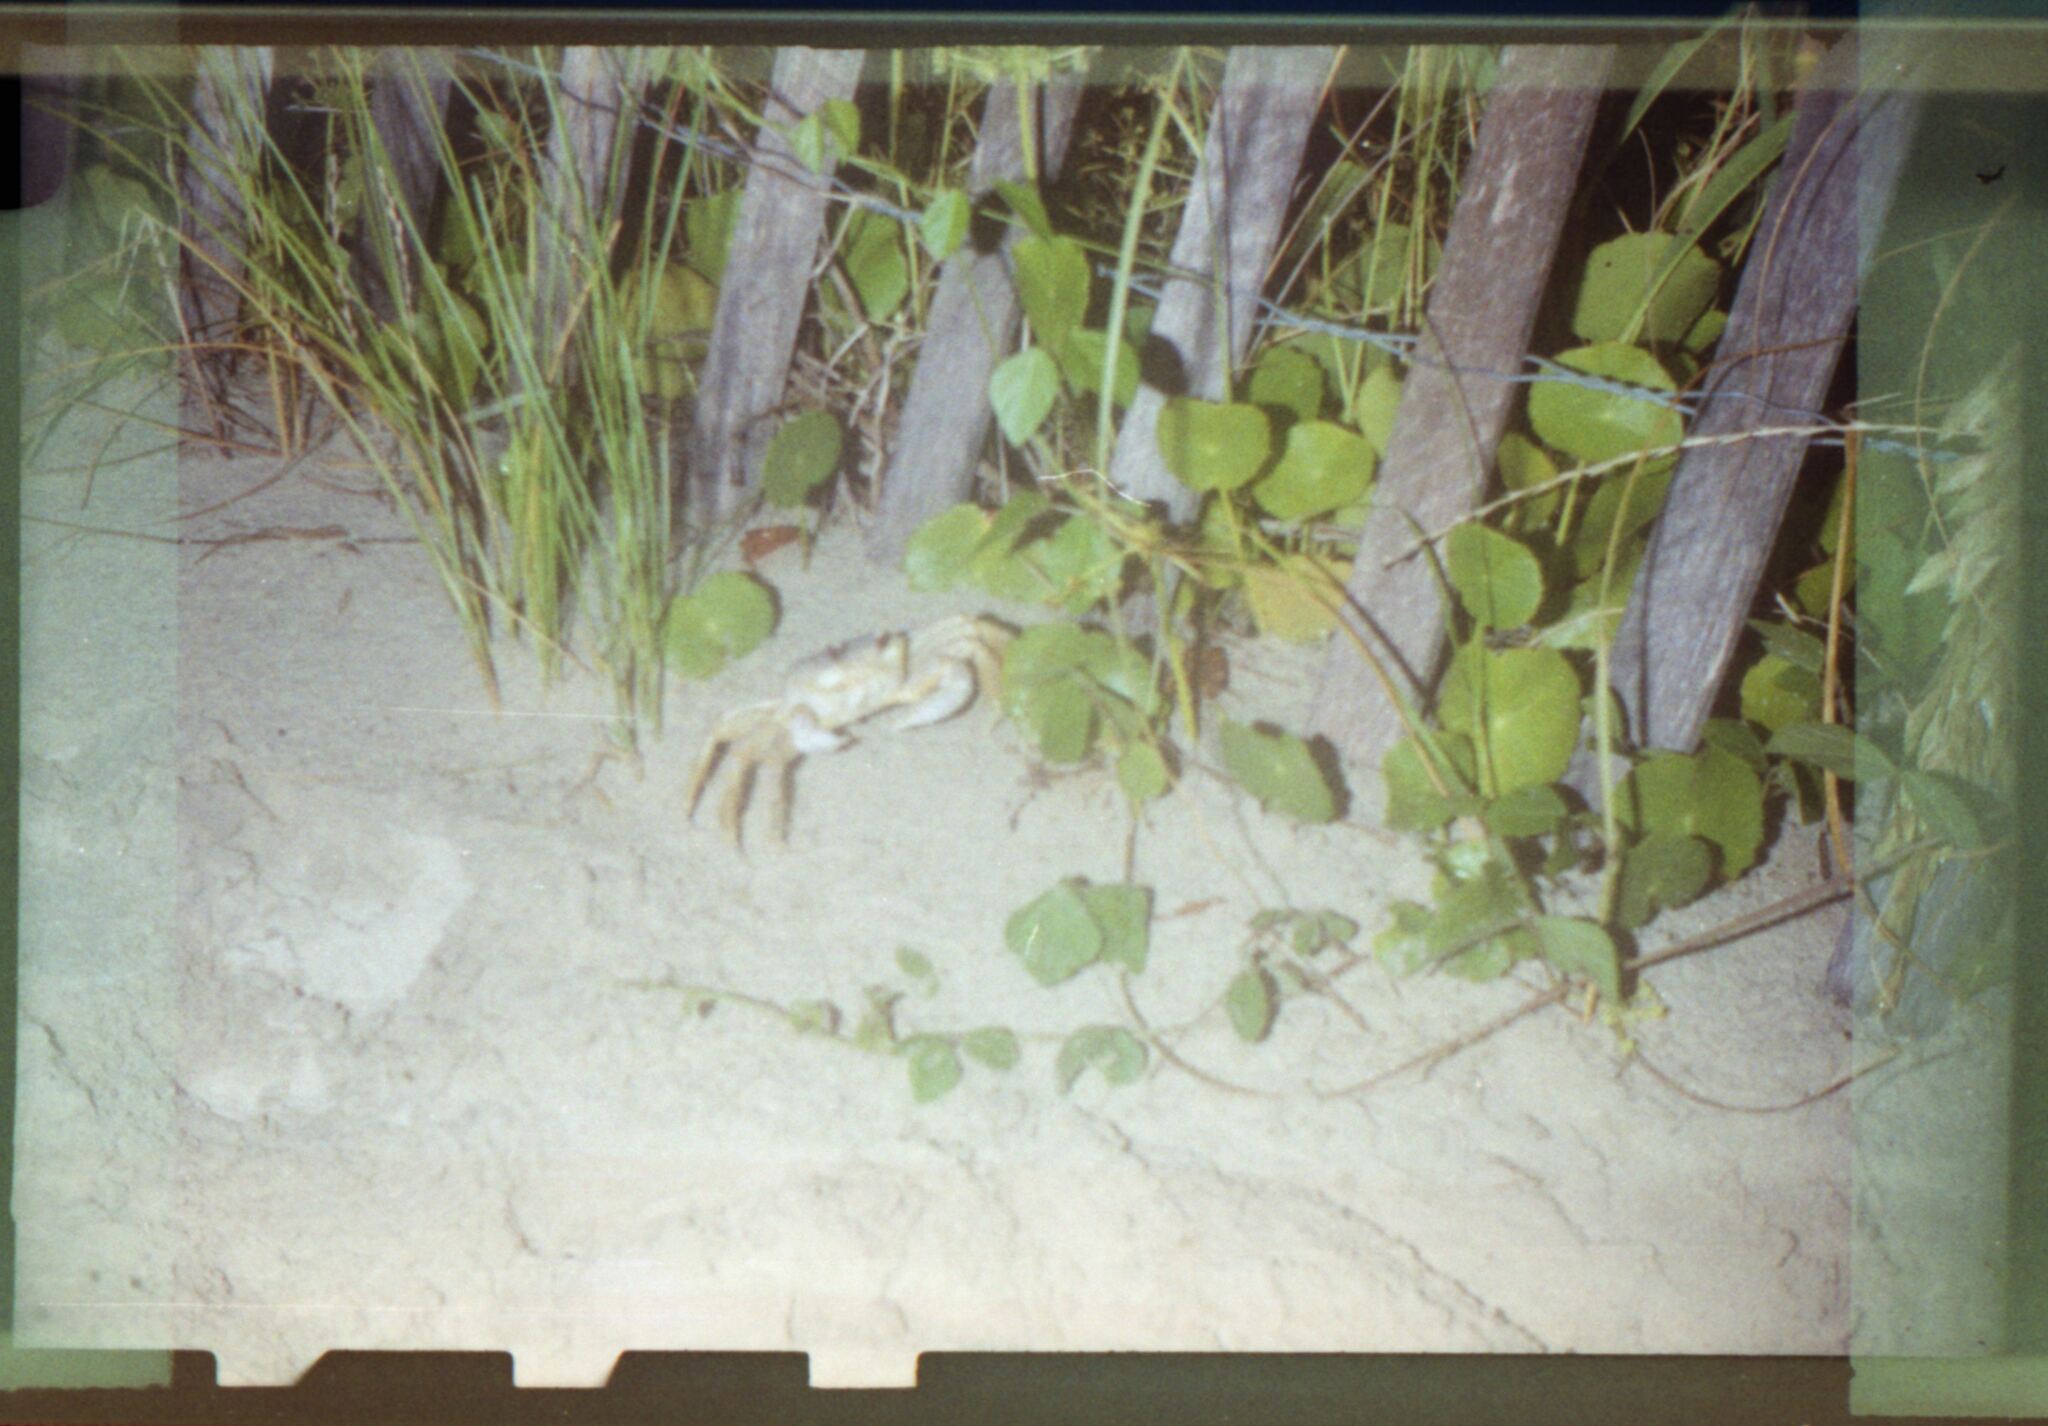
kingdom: Animalia
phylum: Arthropoda
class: Malacostraca
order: Decapoda
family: Ocypodidae
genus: Ocypode
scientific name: Ocypode quadrata
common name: Ghost crab
